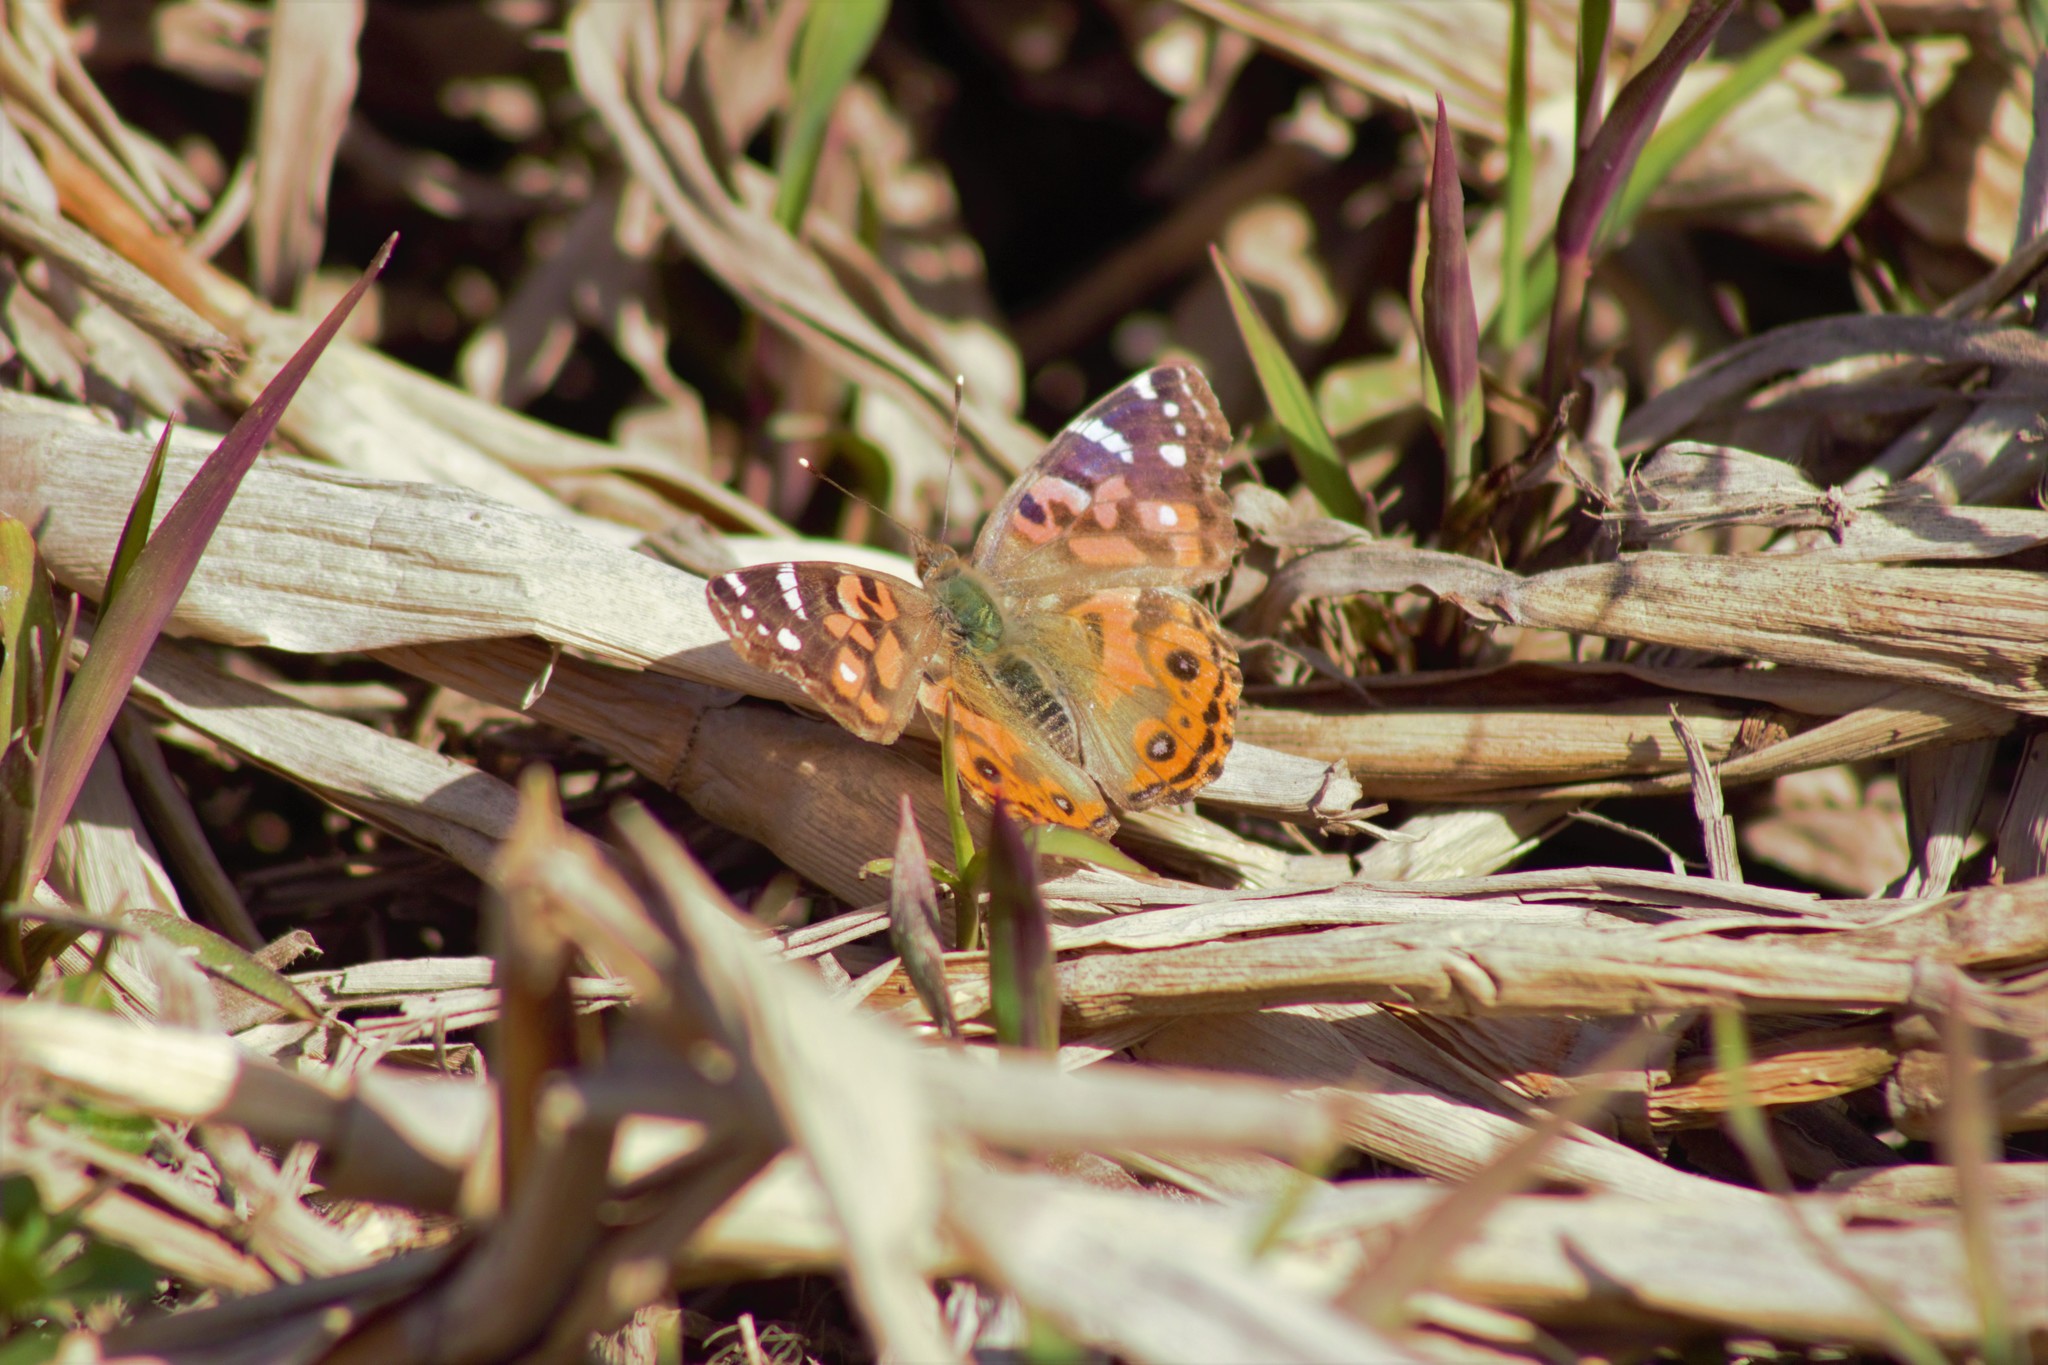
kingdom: Animalia
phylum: Arthropoda
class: Insecta
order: Lepidoptera
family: Nymphalidae
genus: Vanessa
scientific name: Vanessa braziliensis
